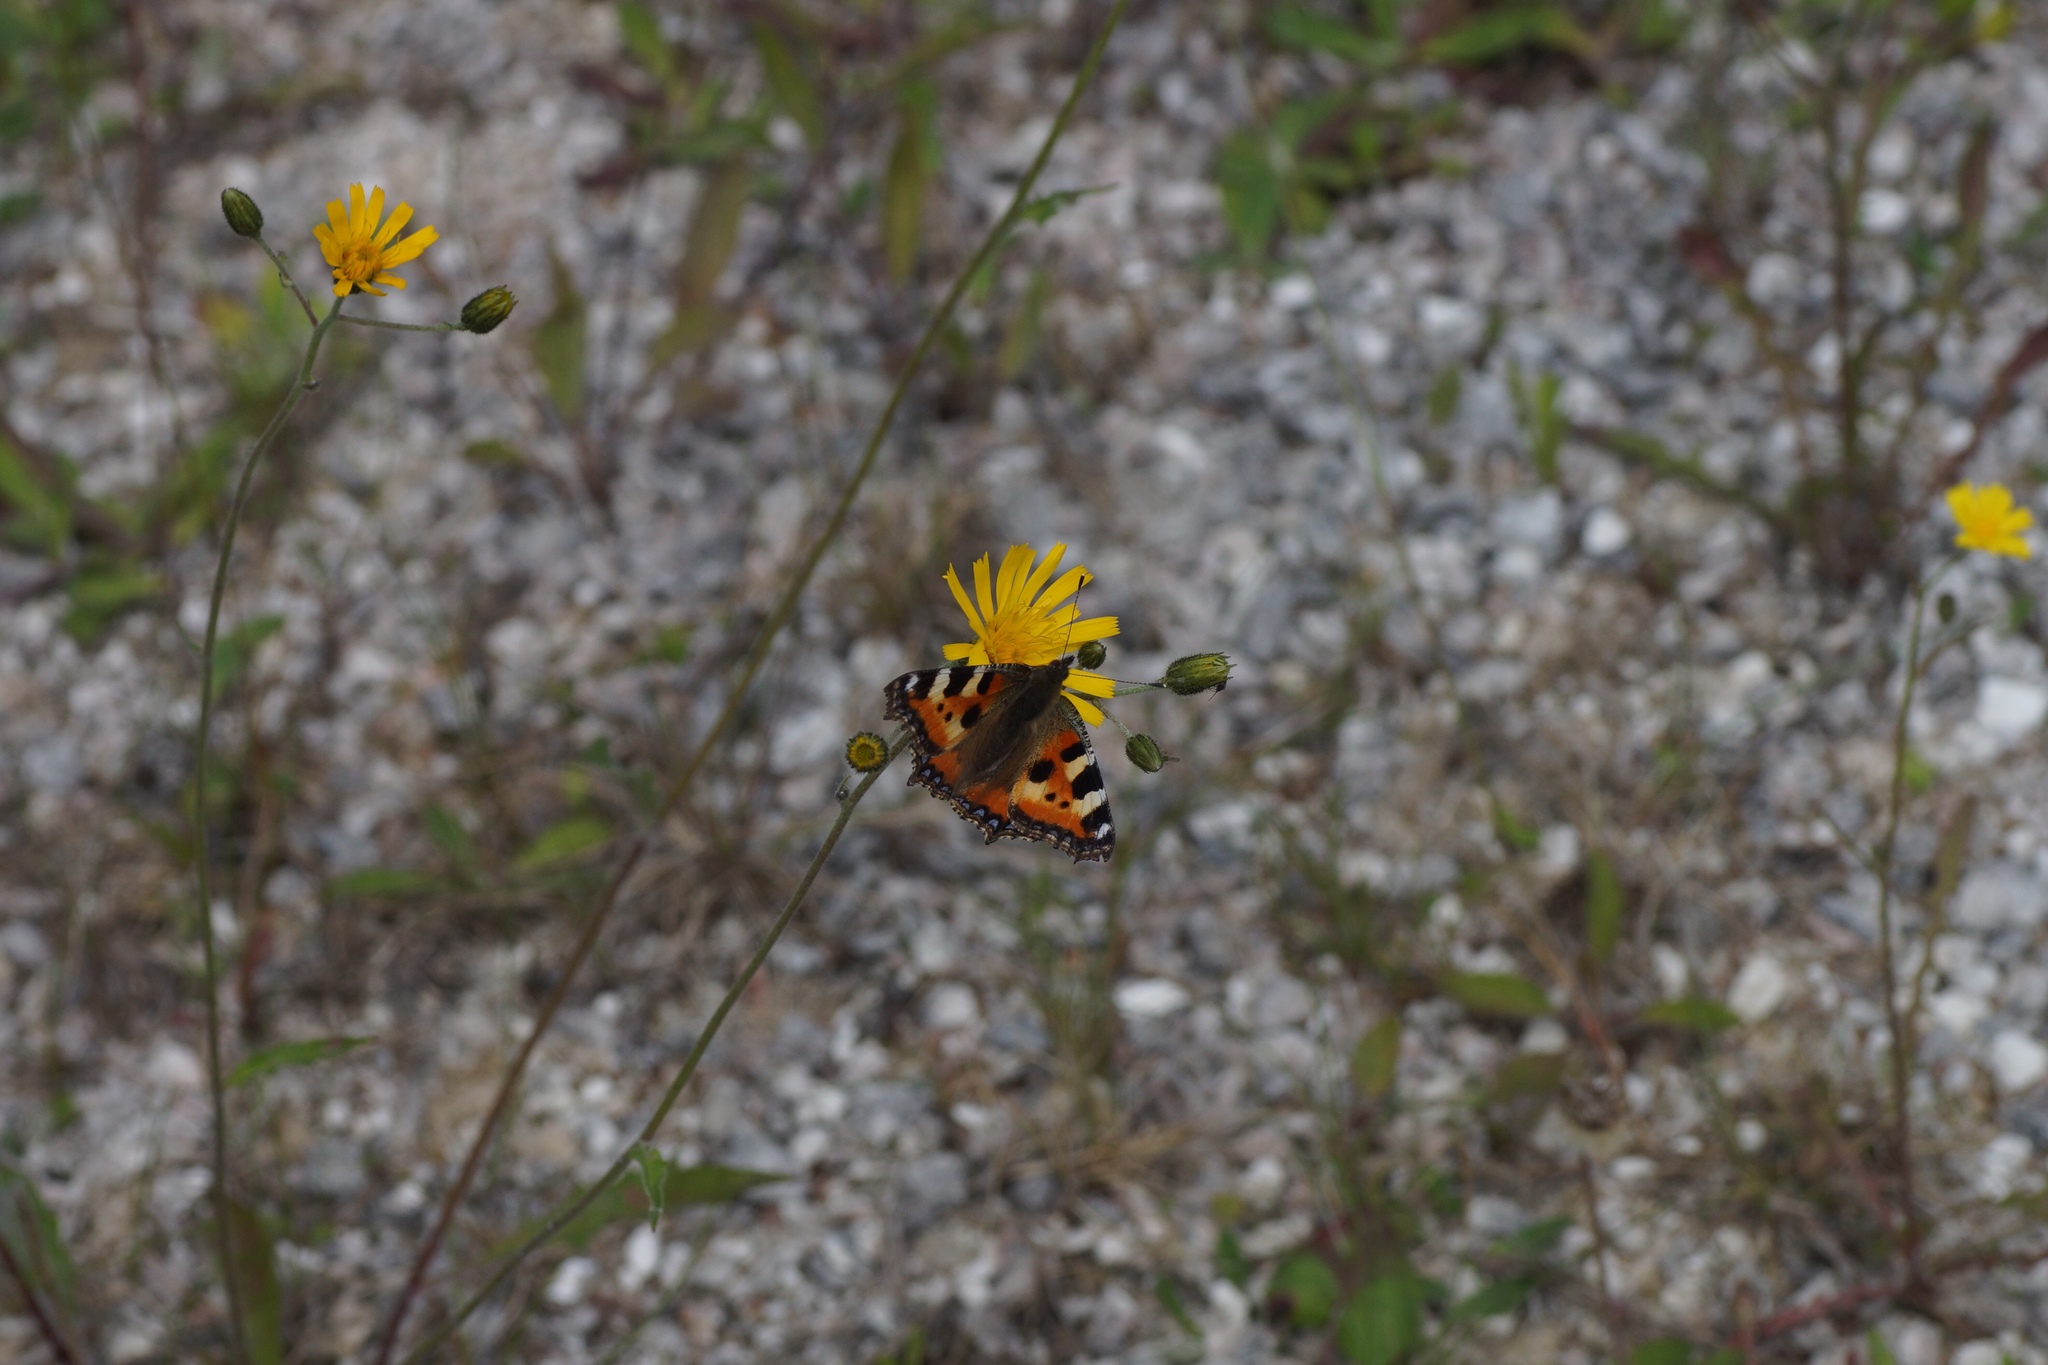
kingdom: Animalia
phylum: Arthropoda
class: Insecta
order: Lepidoptera
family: Nymphalidae
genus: Aglais
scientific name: Aglais urticae
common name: Small tortoiseshell
